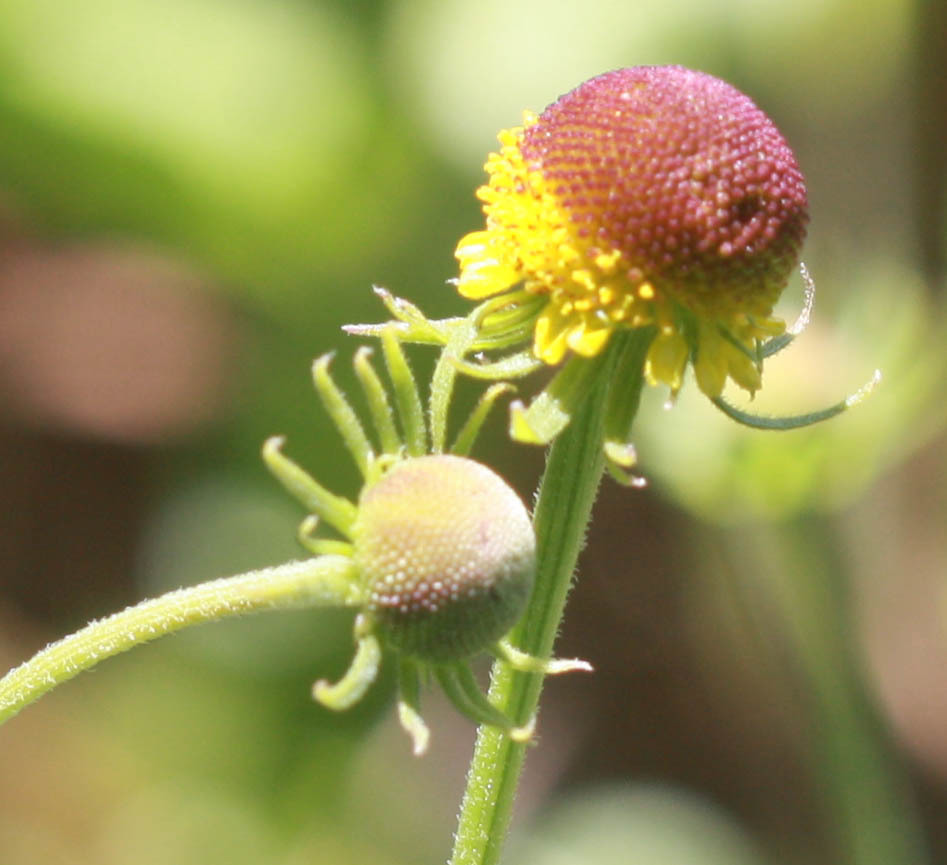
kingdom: Plantae
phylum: Tracheophyta
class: Magnoliopsida
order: Asterales
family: Asteraceae
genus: Helenium
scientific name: Helenium puberulum
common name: Sneezewort
